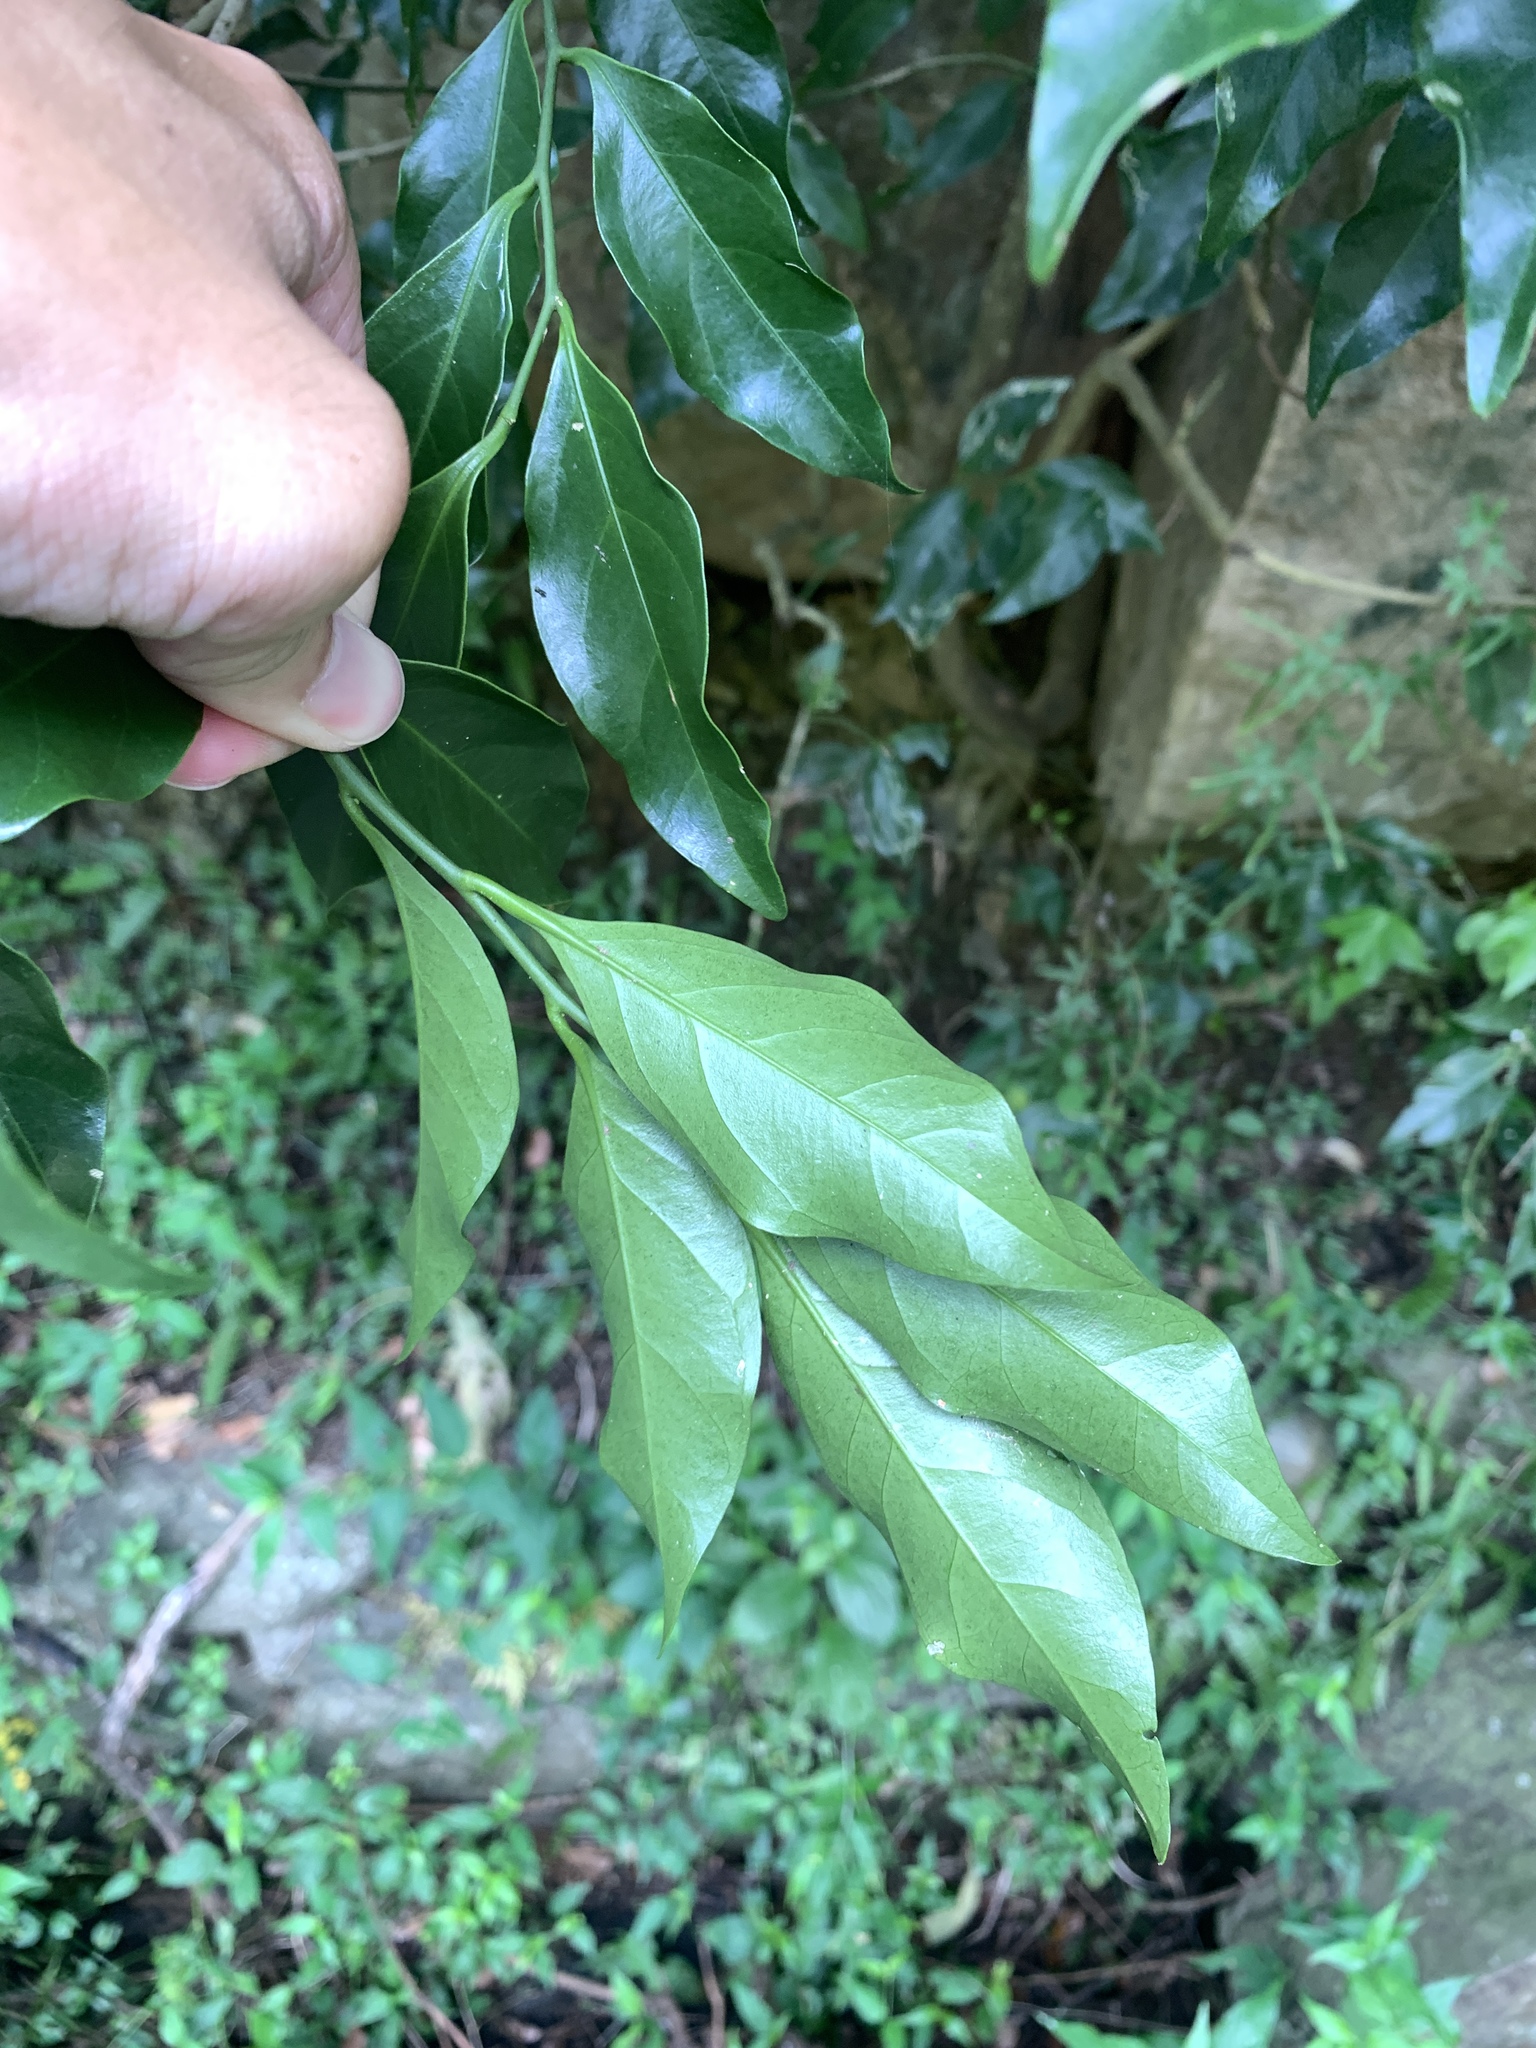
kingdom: Plantae
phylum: Tracheophyta
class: Magnoliopsida
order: Santalales
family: Opiliaceae
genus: Champereia
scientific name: Champereia manillana
